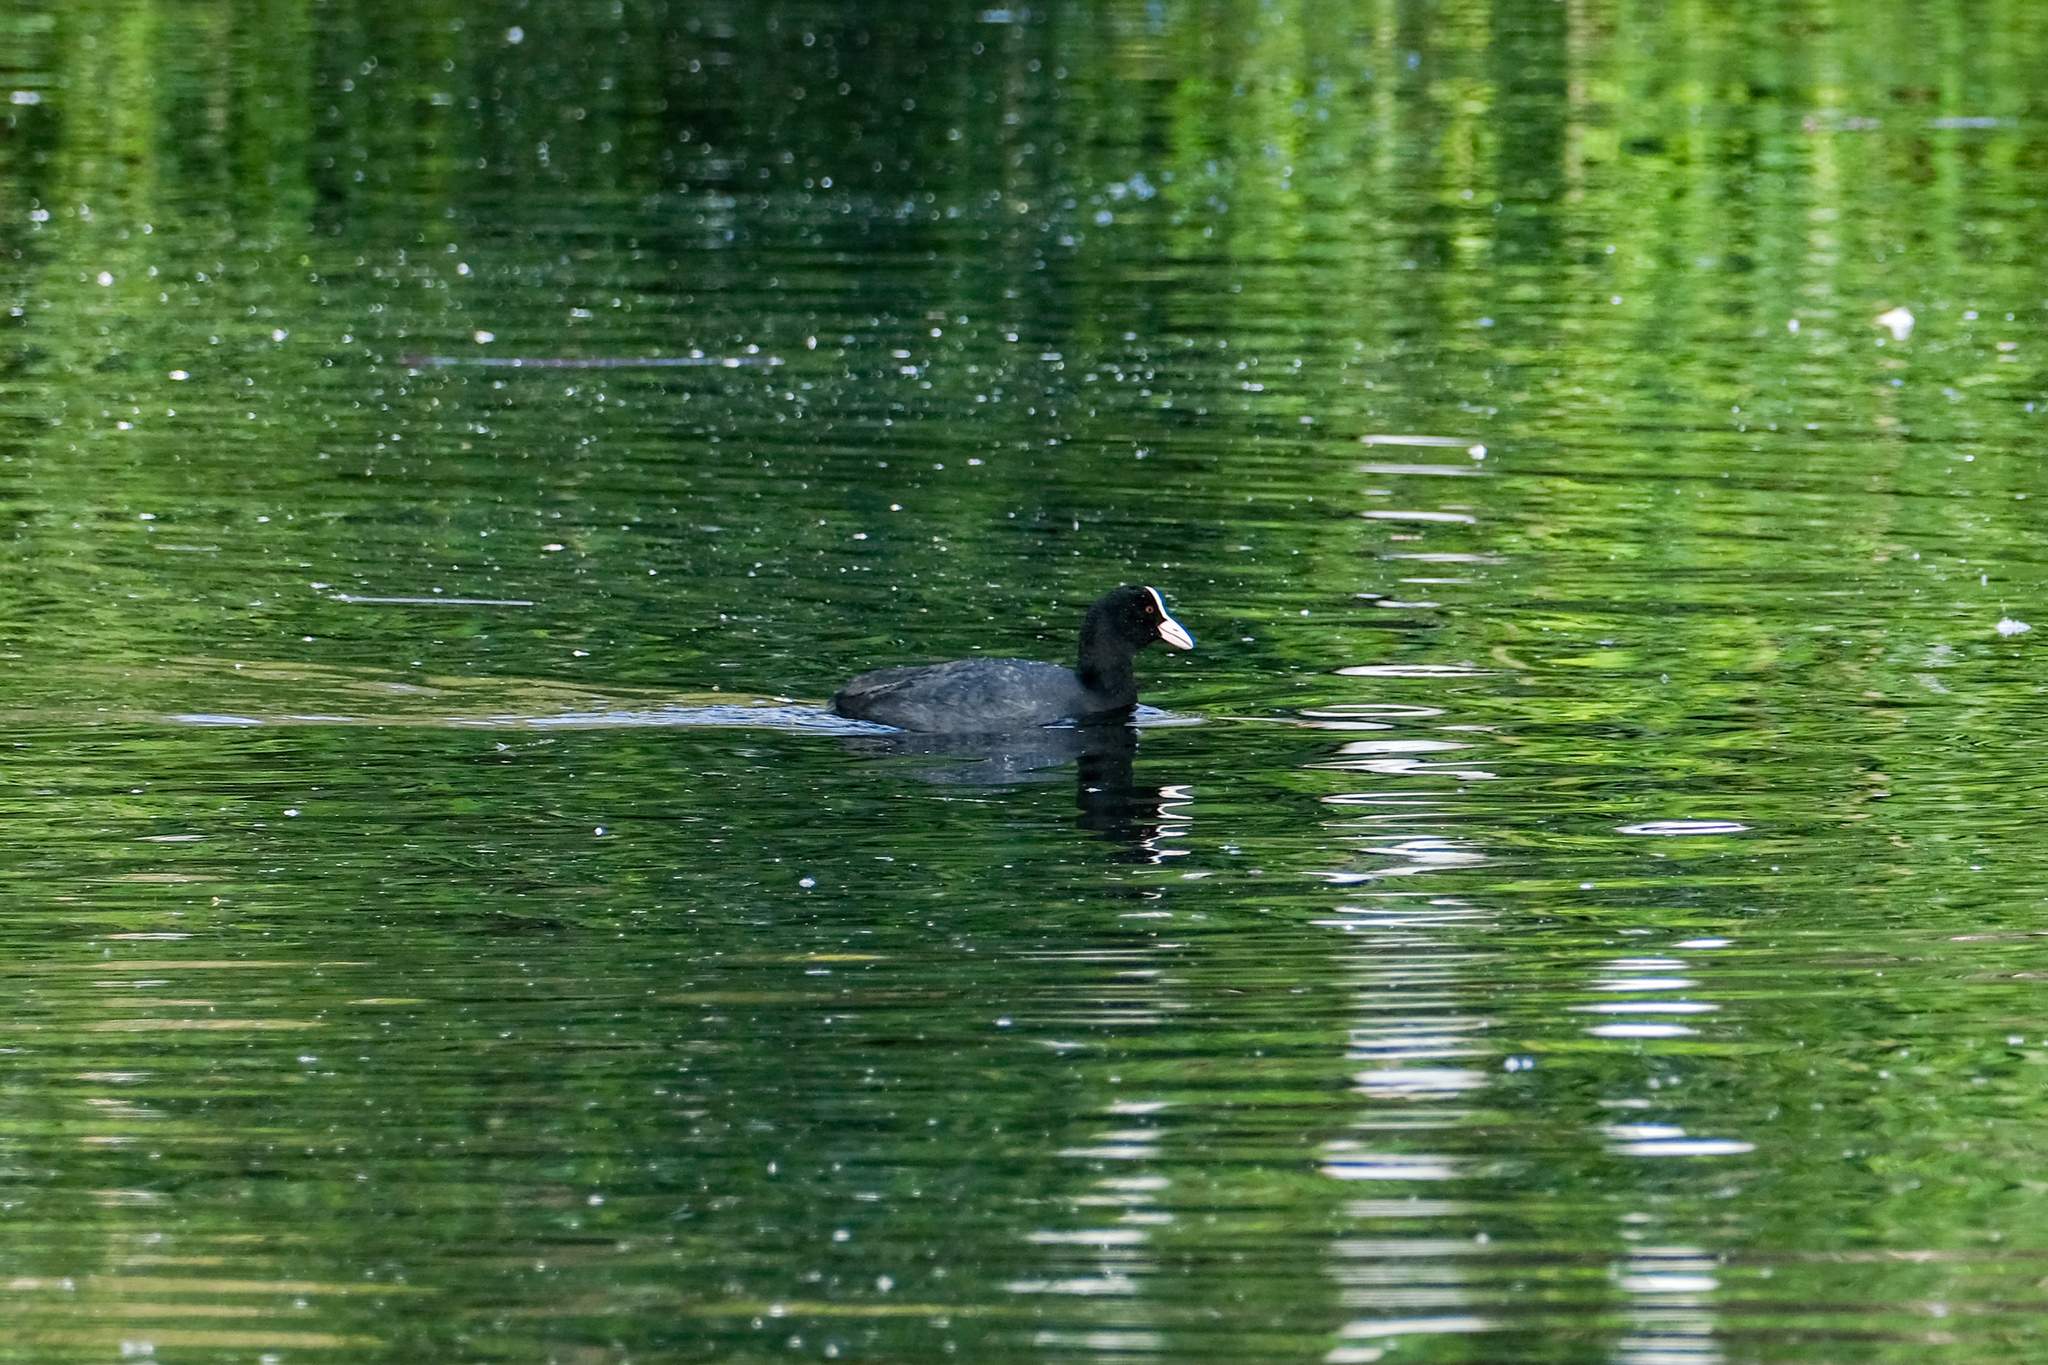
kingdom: Animalia
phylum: Chordata
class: Aves
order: Gruiformes
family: Rallidae
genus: Fulica
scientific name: Fulica atra
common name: Eurasian coot
